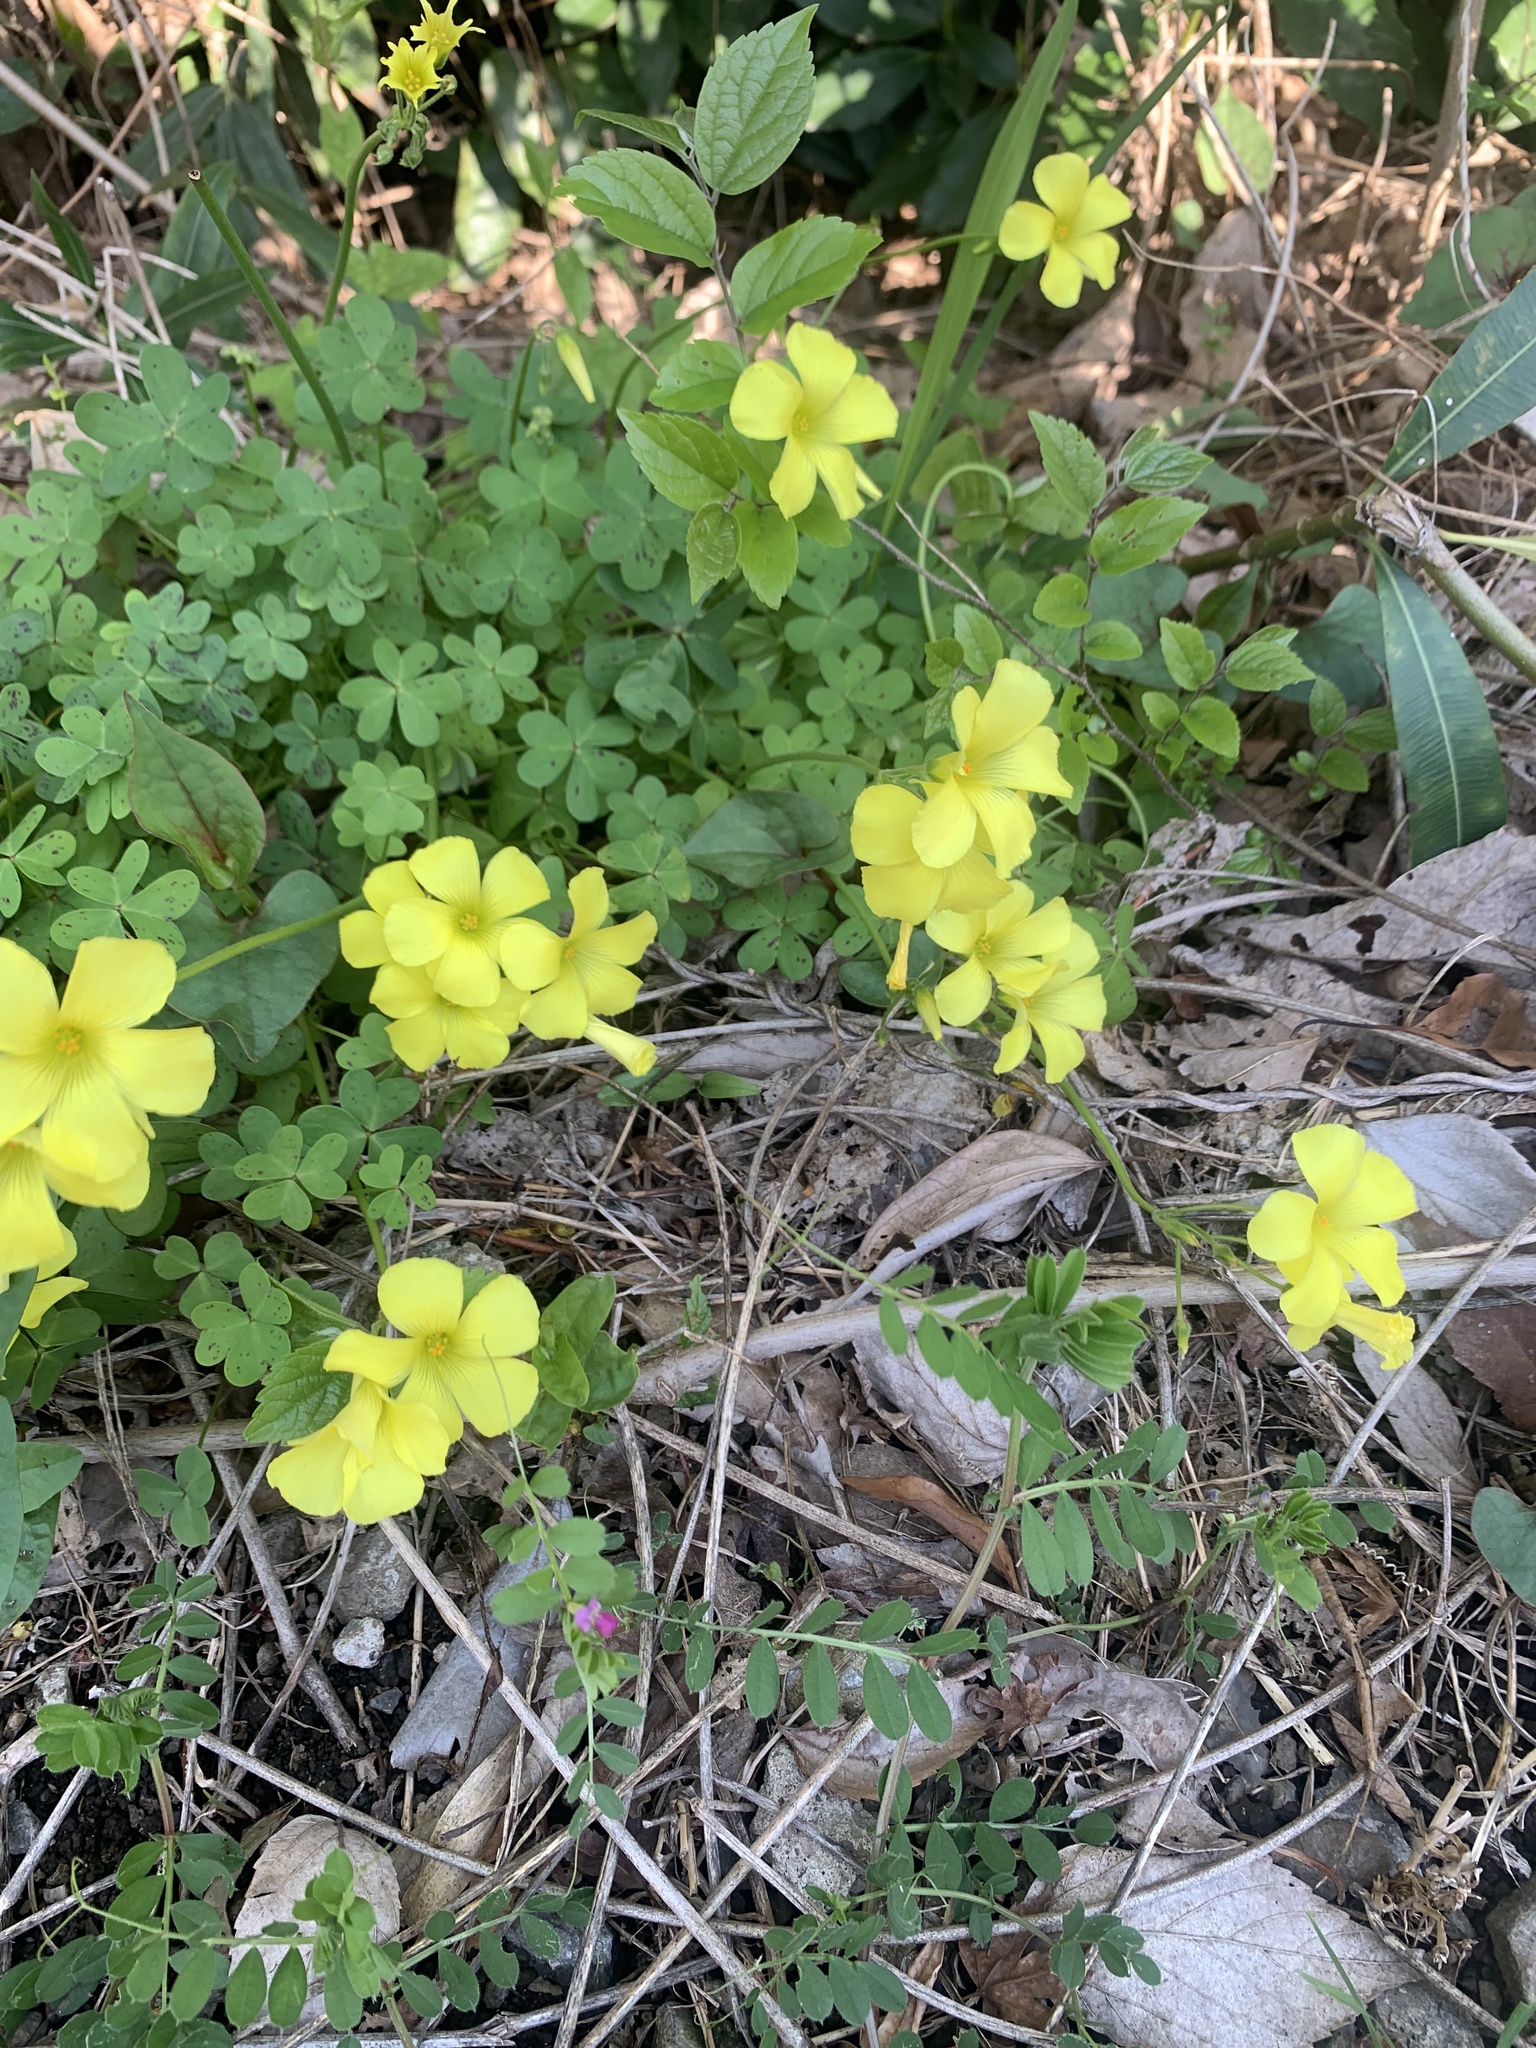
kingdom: Plantae
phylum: Tracheophyta
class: Magnoliopsida
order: Oxalidales
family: Oxalidaceae
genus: Oxalis
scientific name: Oxalis pes-caprae
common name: Bermuda-buttercup
